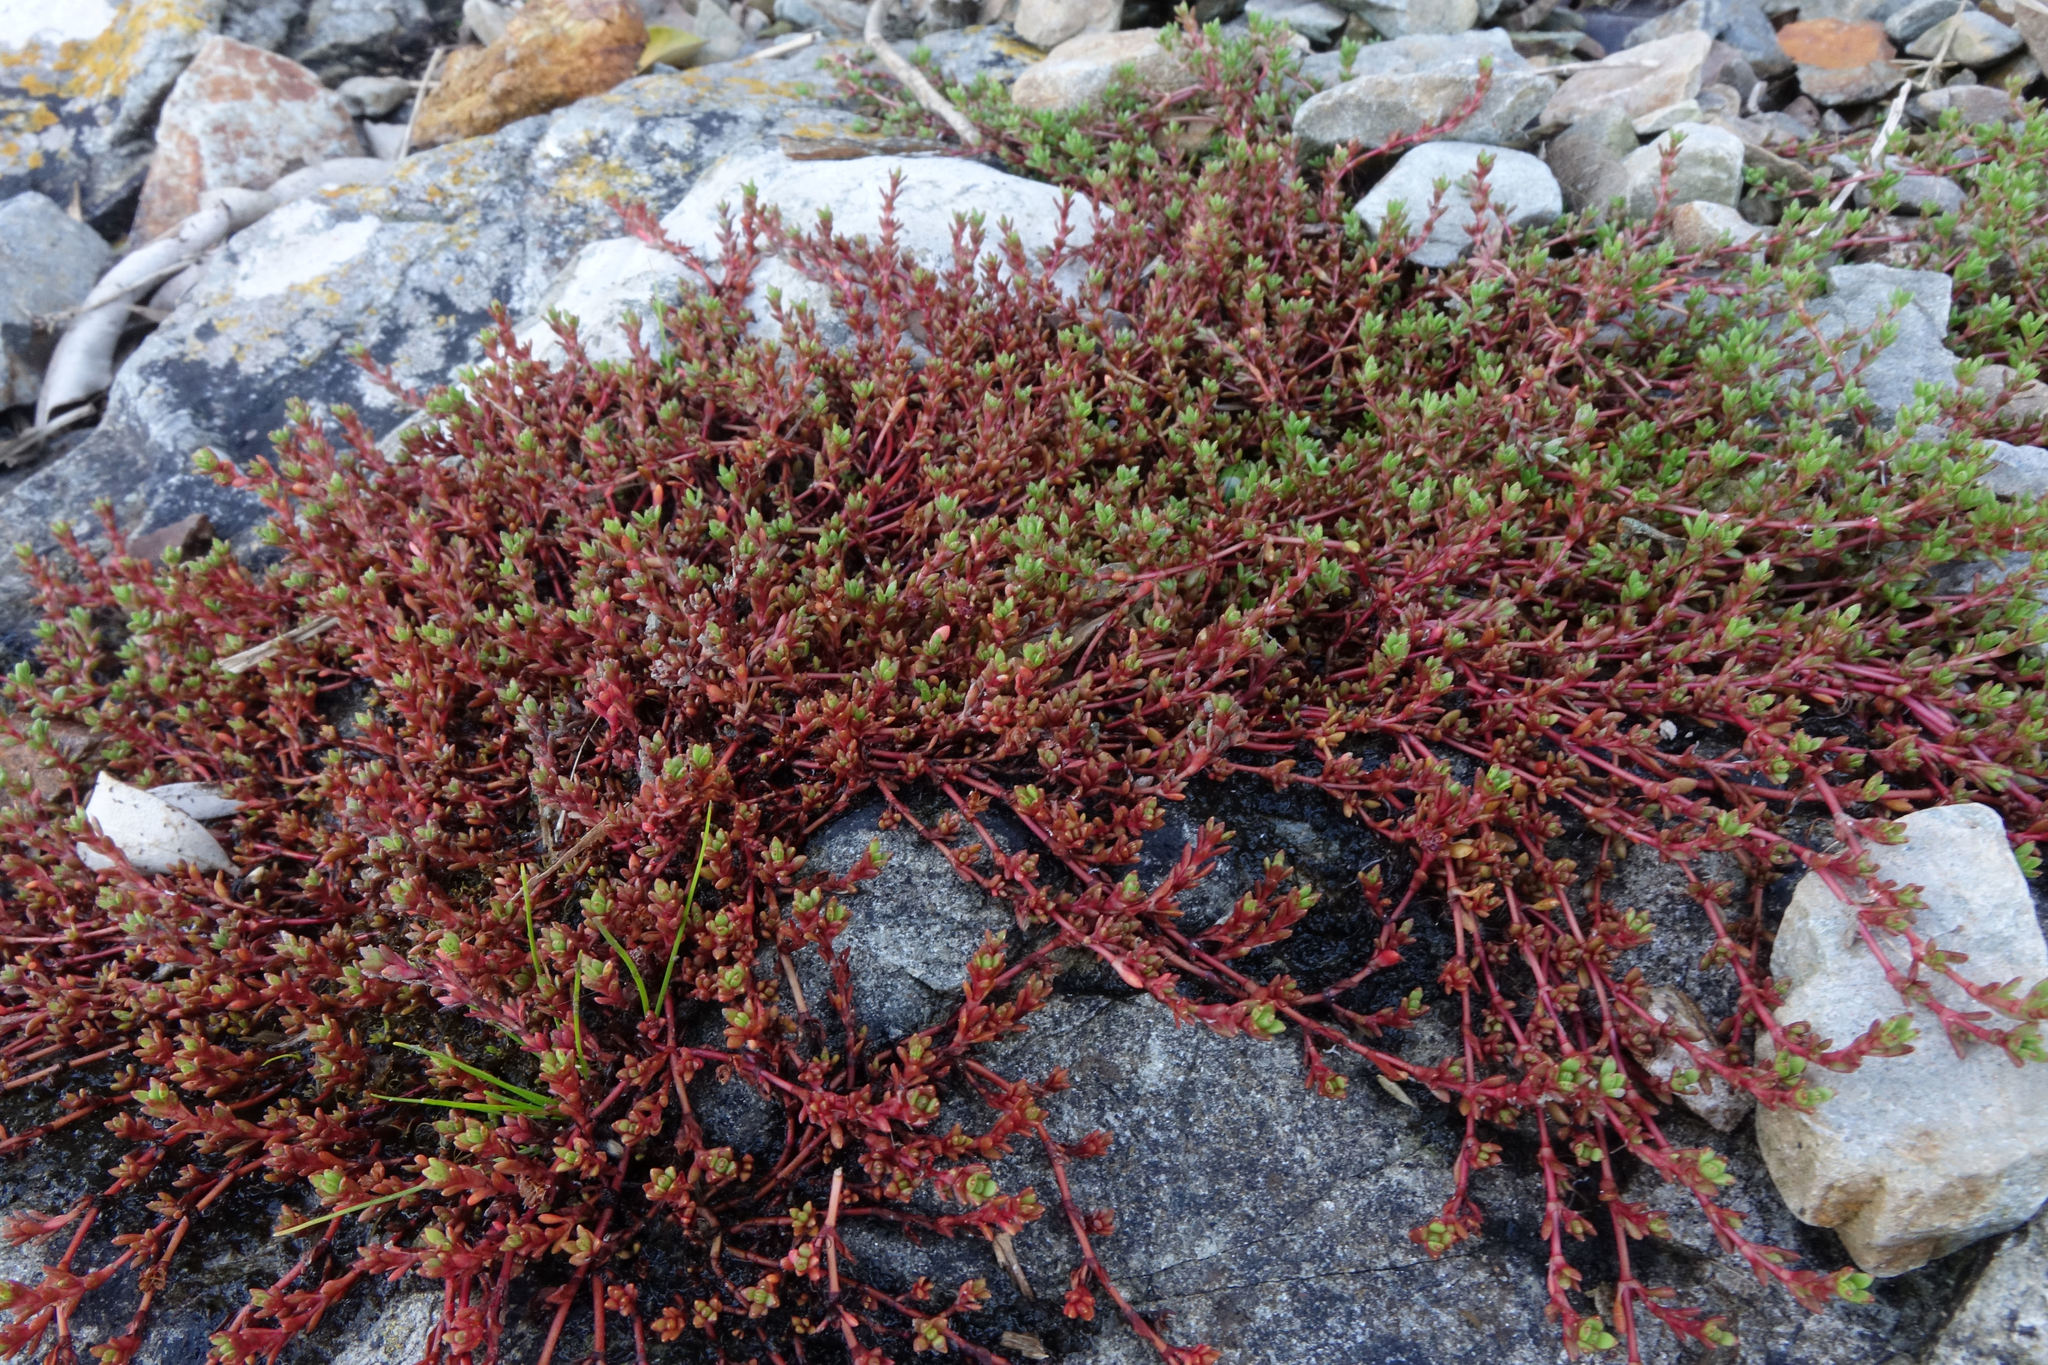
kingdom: Plantae
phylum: Tracheophyta
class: Magnoliopsida
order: Saxifragales
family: Crassulaceae
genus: Crassula
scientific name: Crassula moschata
